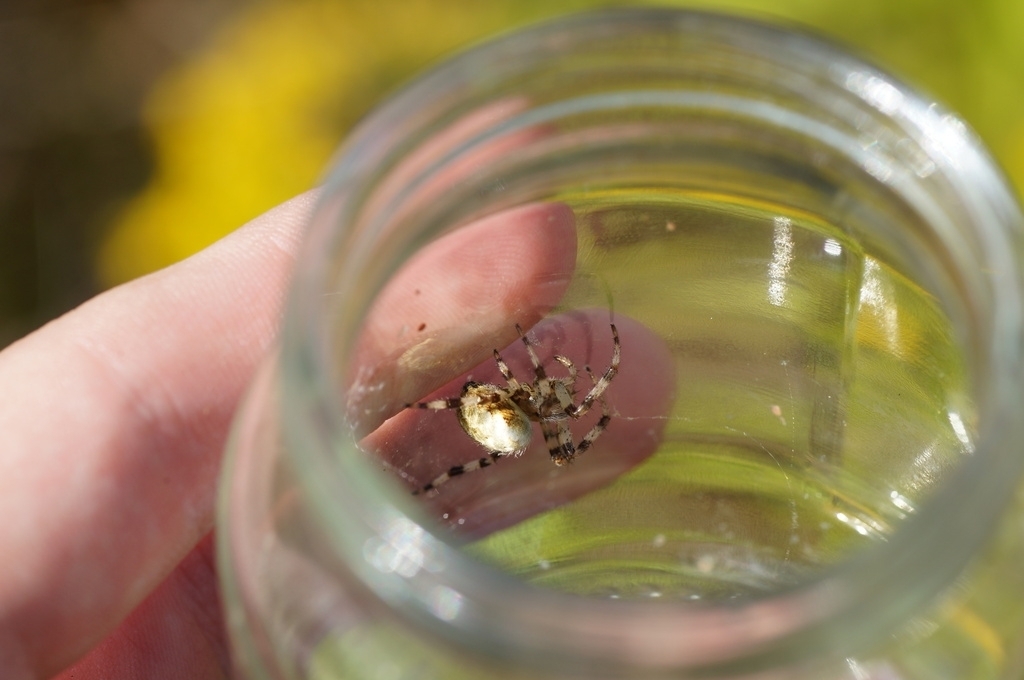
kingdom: Animalia
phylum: Arthropoda
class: Arachnida
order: Araneae
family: Araneidae
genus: Araneus
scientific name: Araneus quadratus
